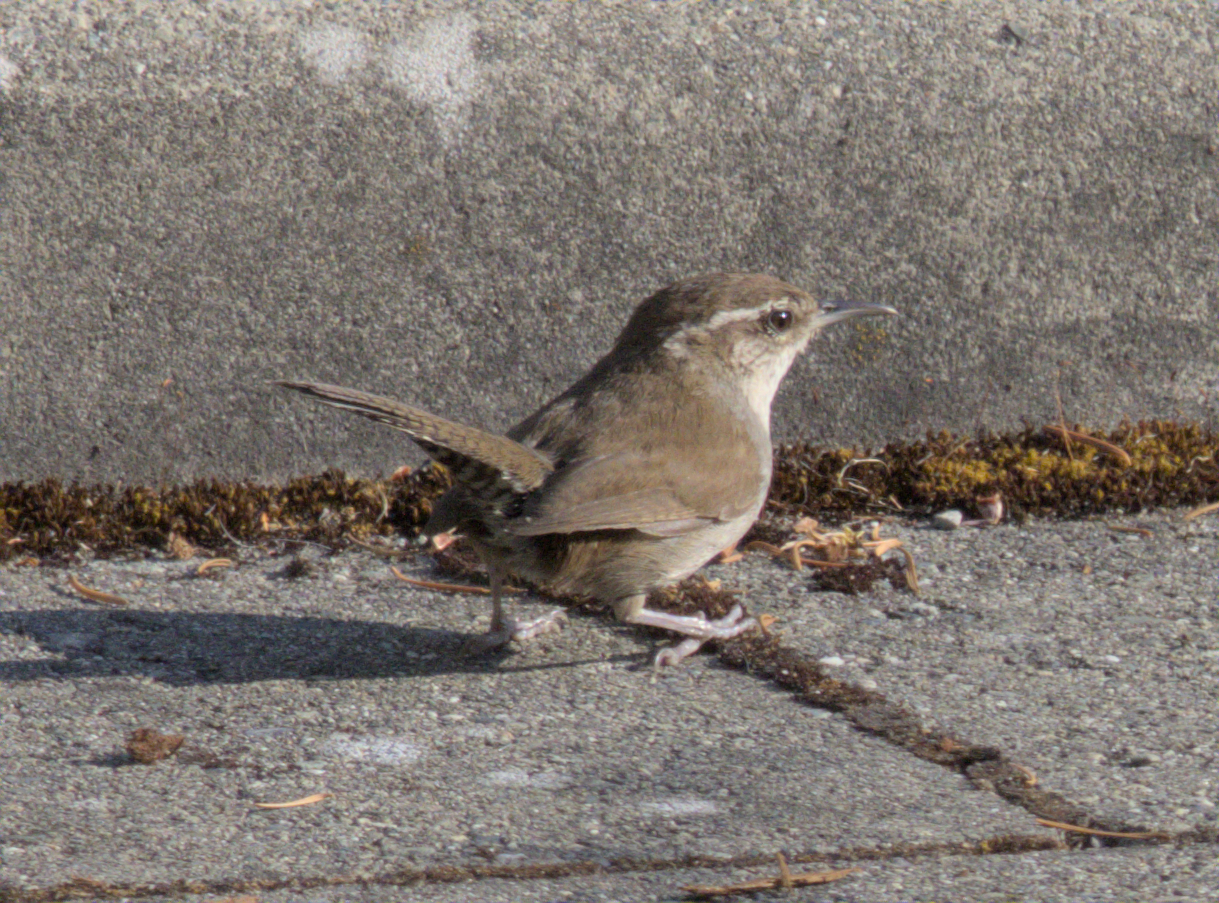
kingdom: Animalia
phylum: Chordata
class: Aves
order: Passeriformes
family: Troglodytidae
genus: Thryomanes
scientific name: Thryomanes bewickii
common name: Bewick's wren
